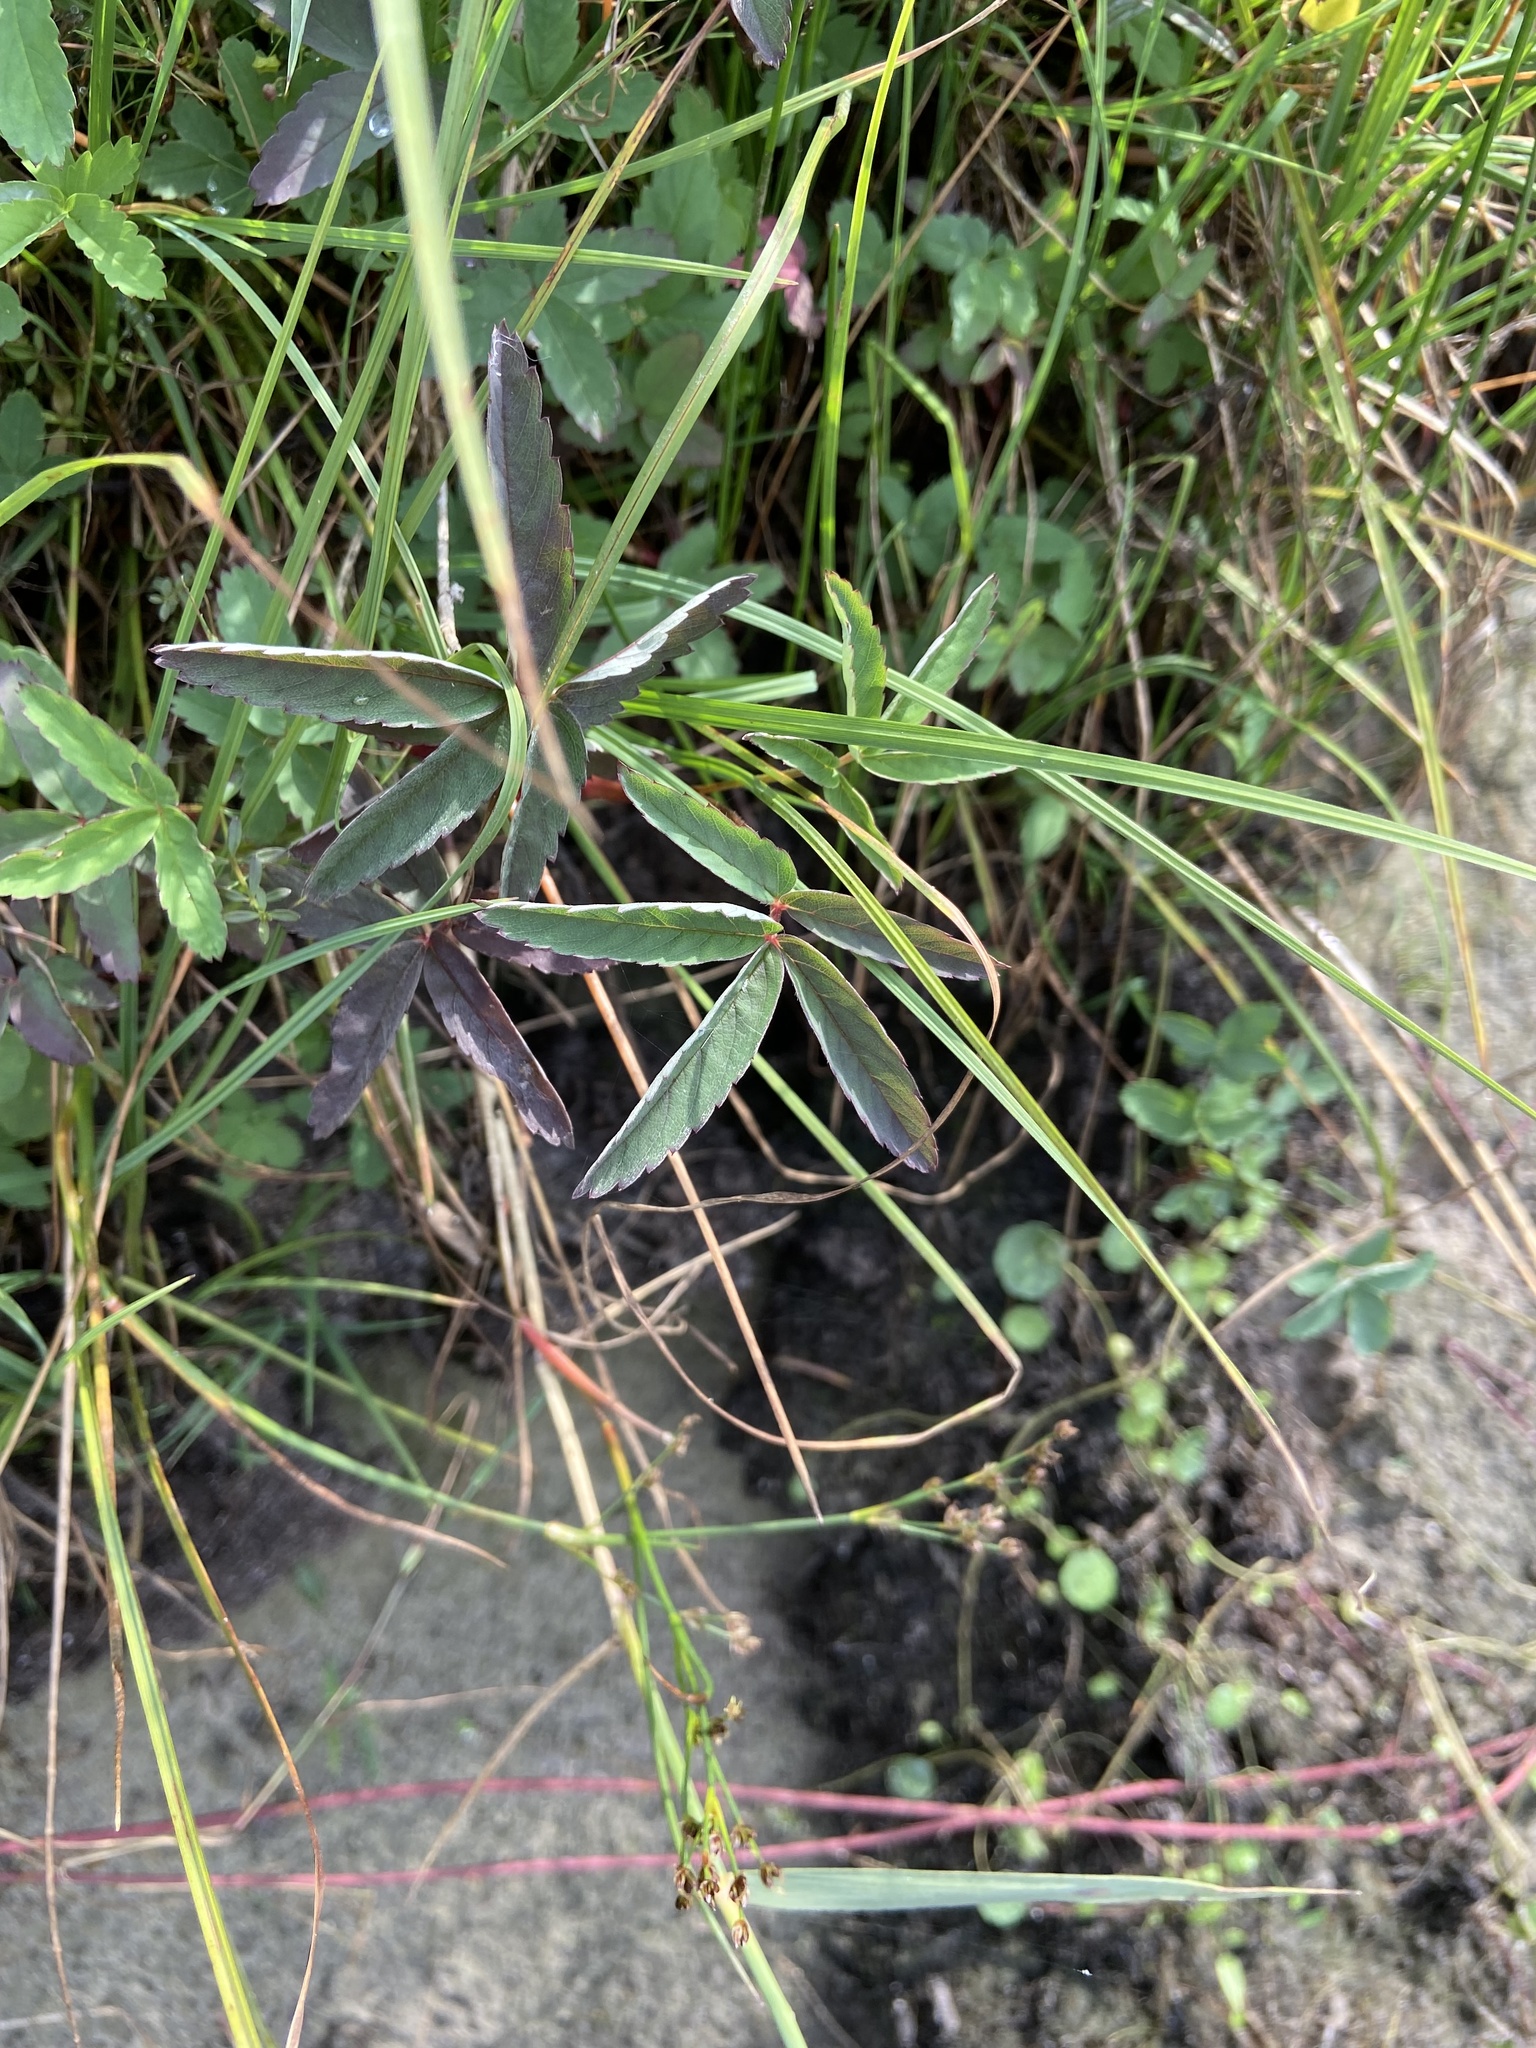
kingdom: Plantae
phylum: Tracheophyta
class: Magnoliopsida
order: Rosales
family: Rosaceae
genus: Comarum
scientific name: Comarum palustre
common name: Marsh cinquefoil
